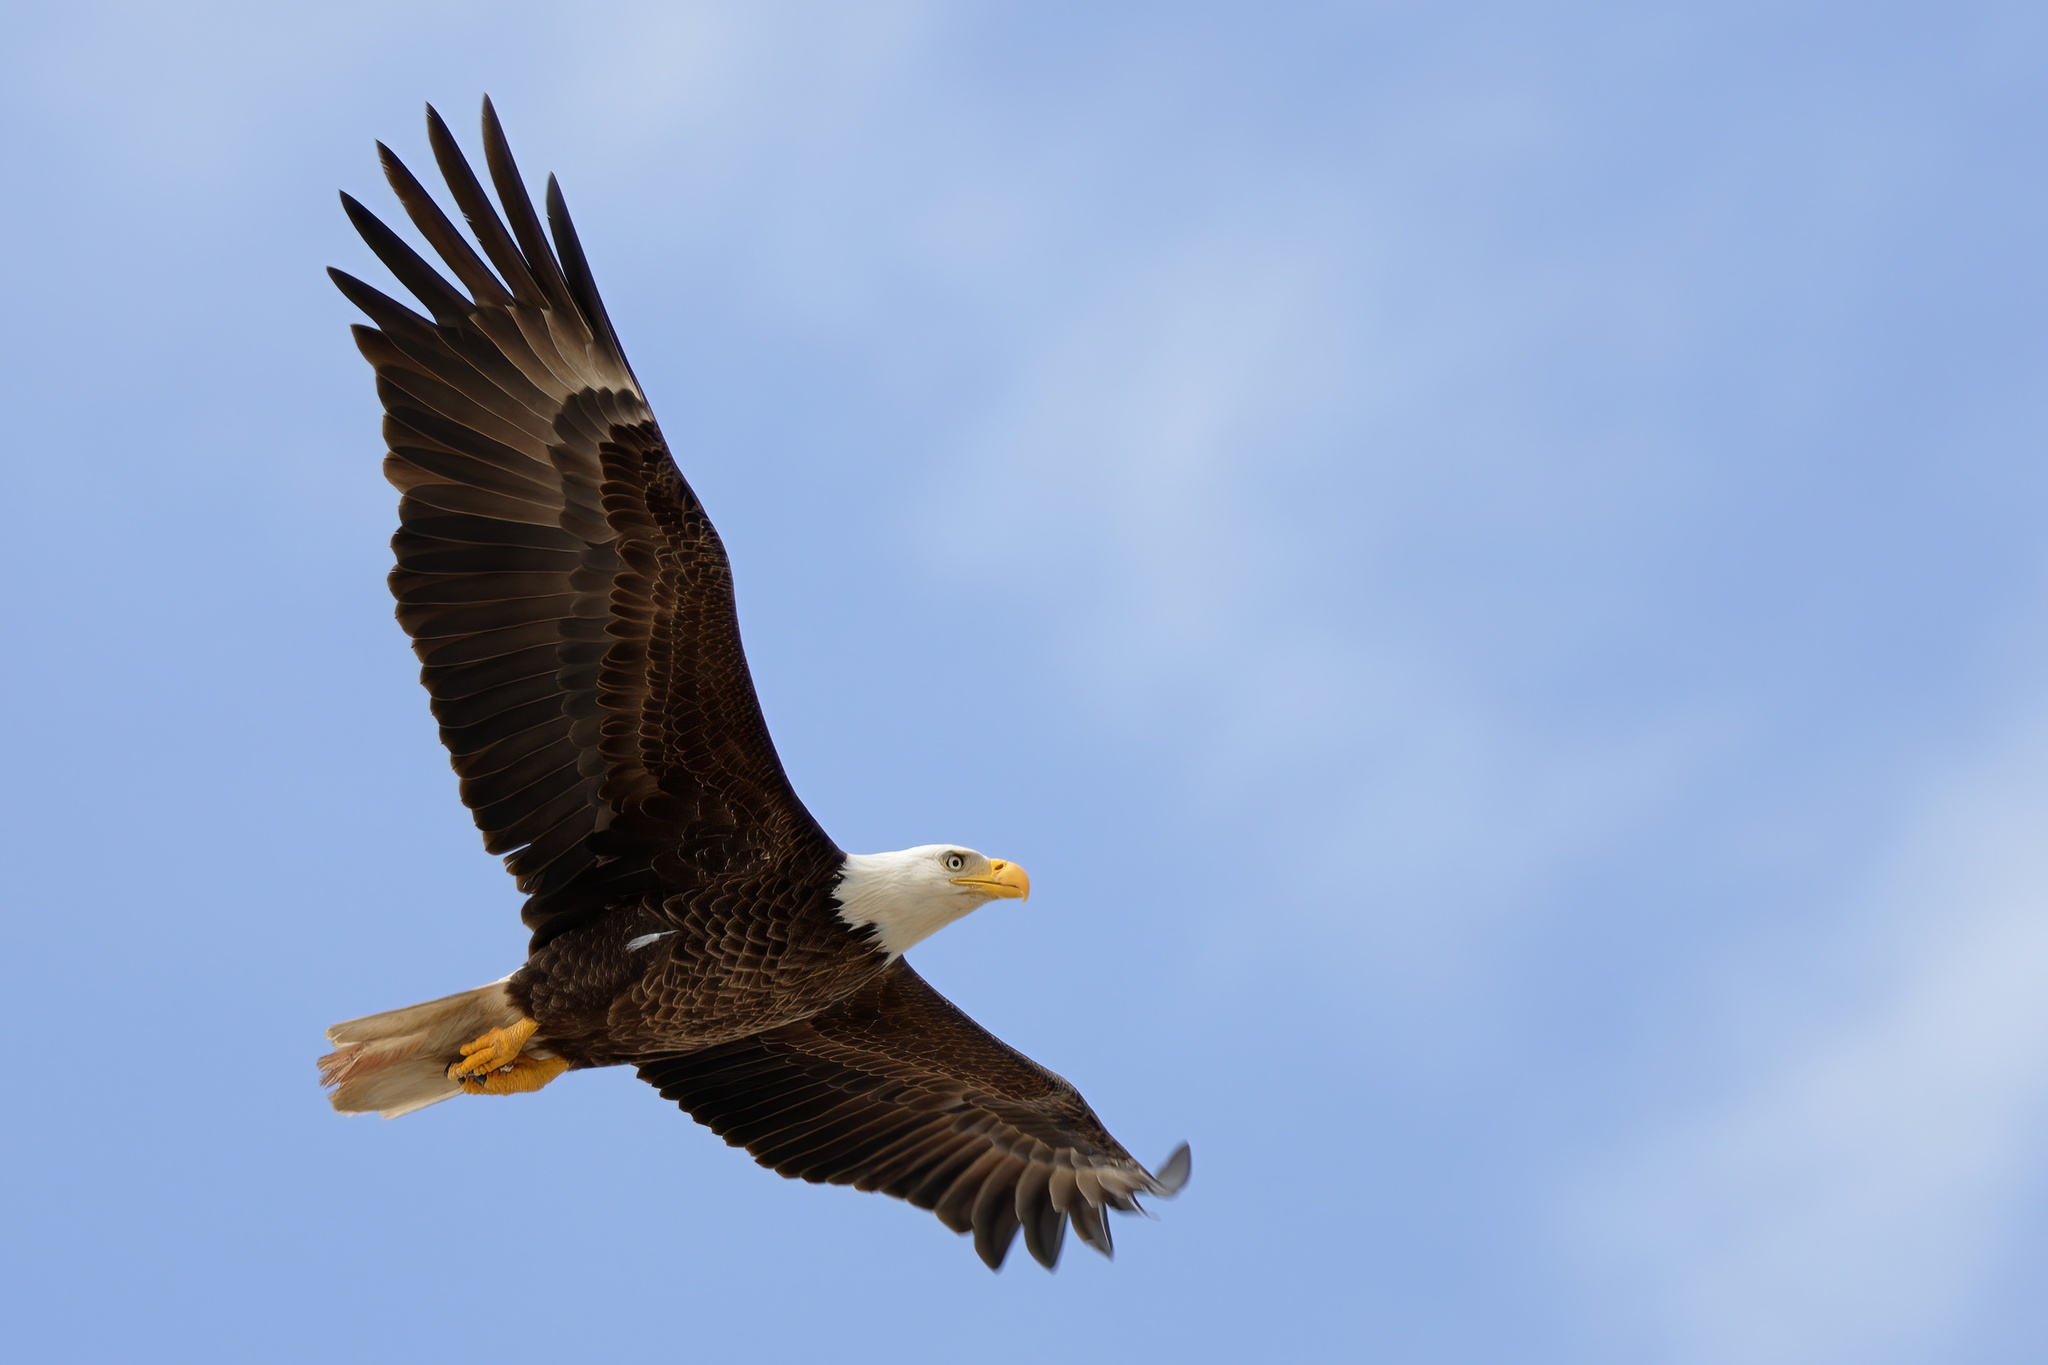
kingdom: Animalia
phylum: Chordata
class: Aves
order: Accipitriformes
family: Accipitridae
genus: Haliaeetus
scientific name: Haliaeetus leucocephalus
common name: Bald eagle
